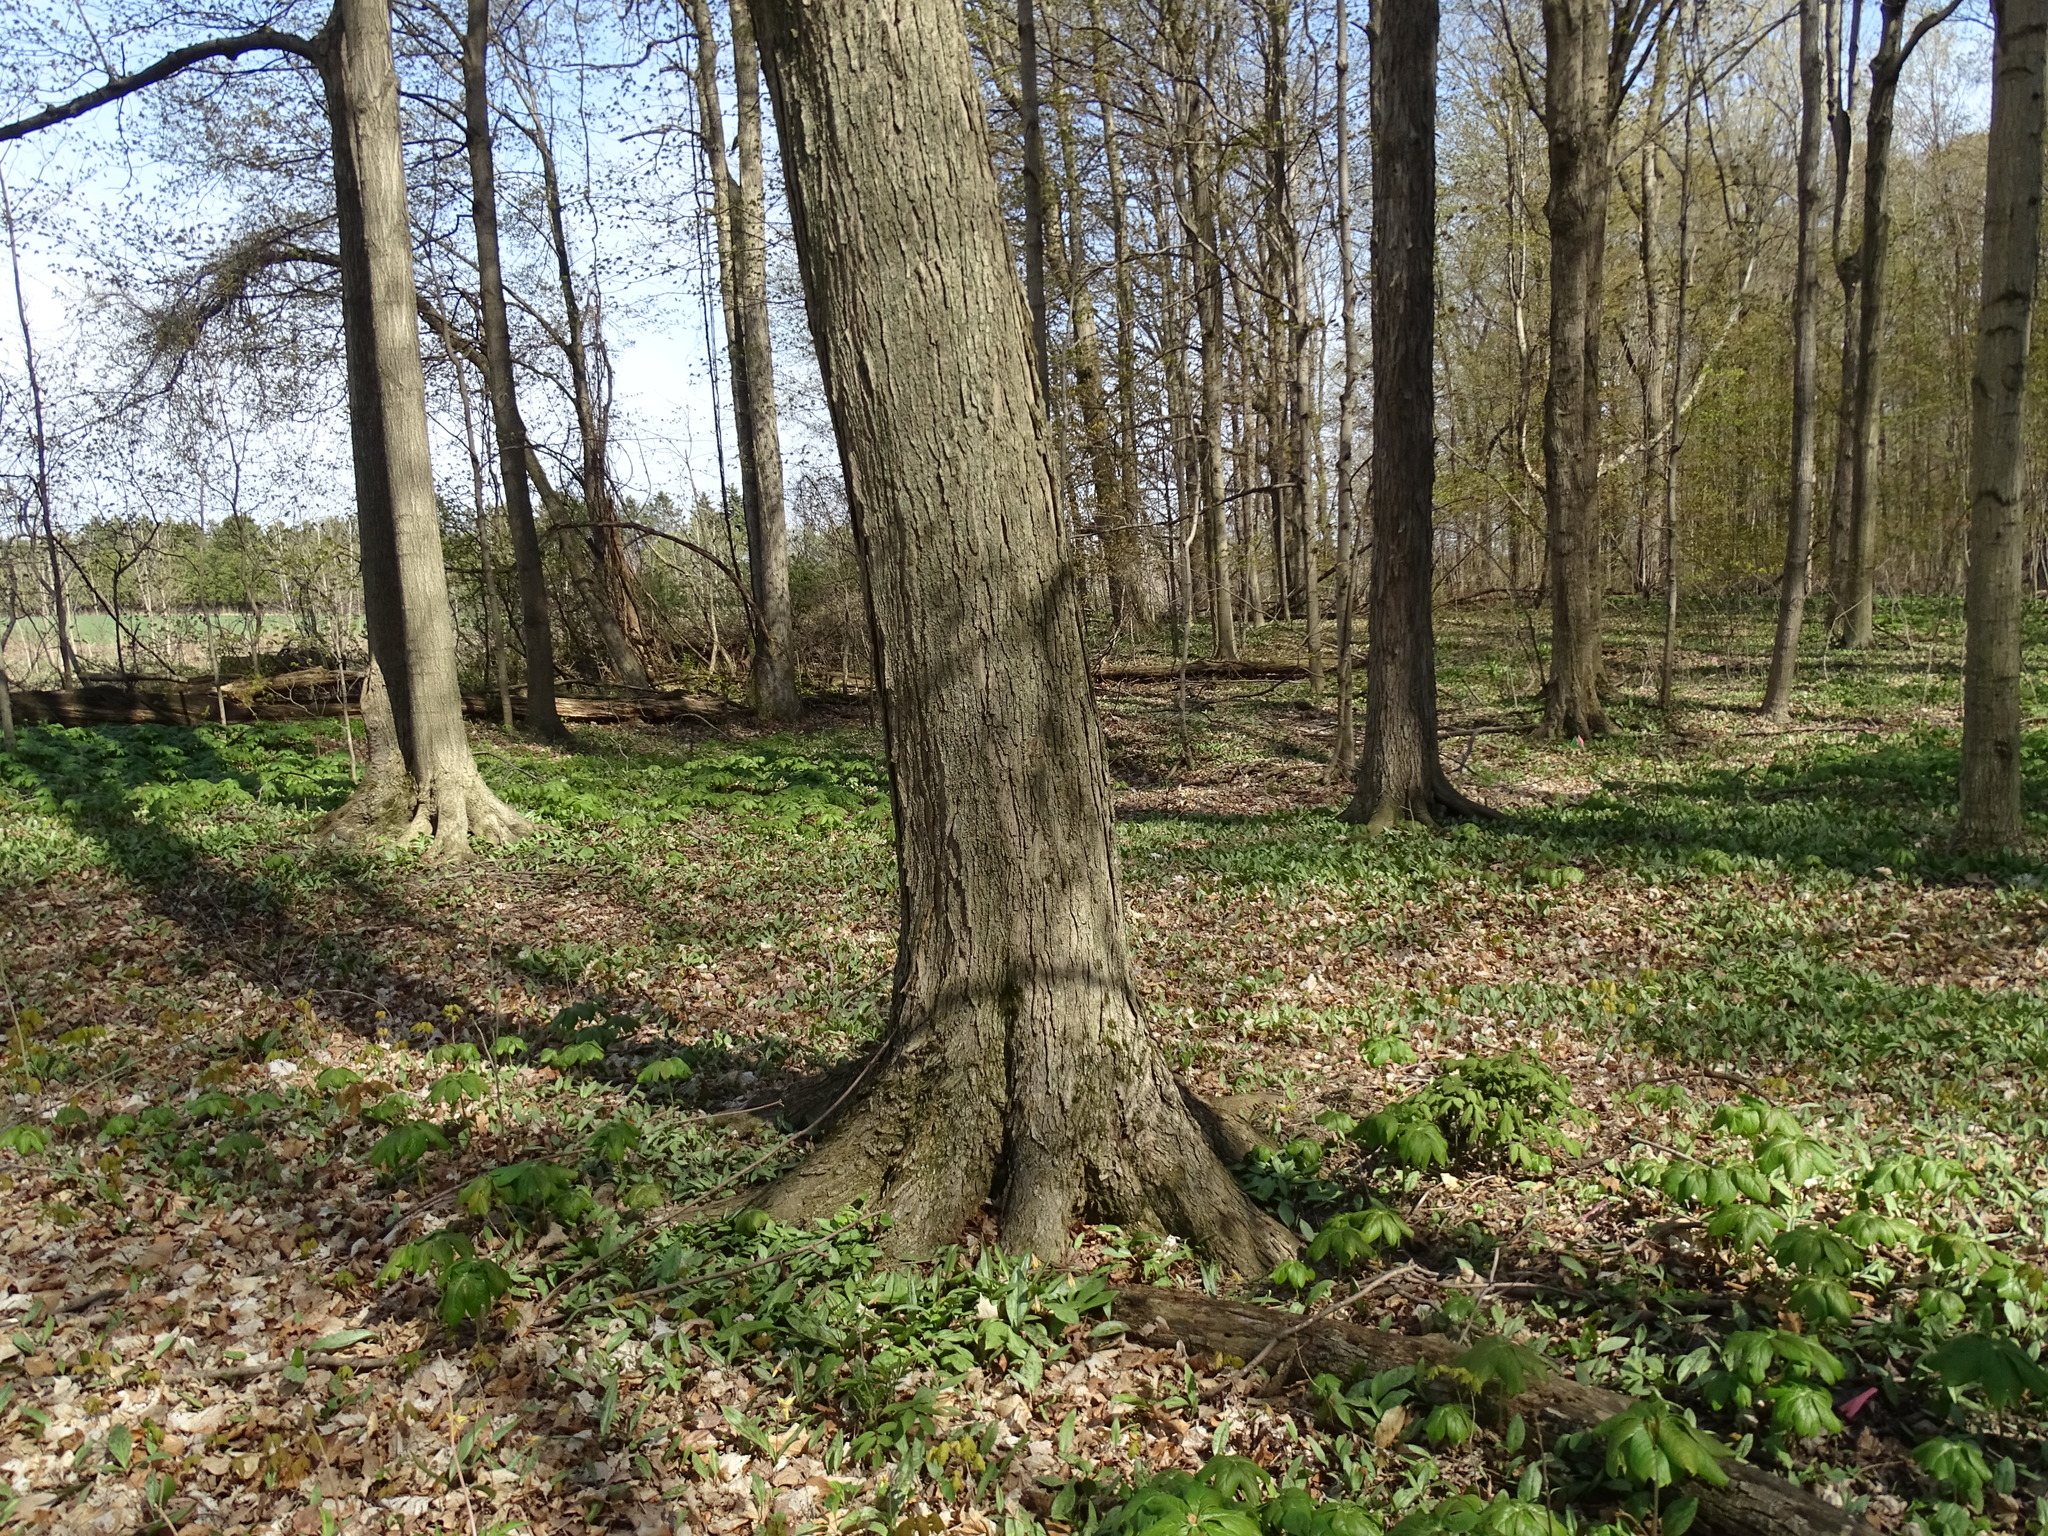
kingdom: Plantae
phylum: Tracheophyta
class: Magnoliopsida
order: Sapindales
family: Sapindaceae
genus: Acer
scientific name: Acer saccharum
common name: Sugar maple
